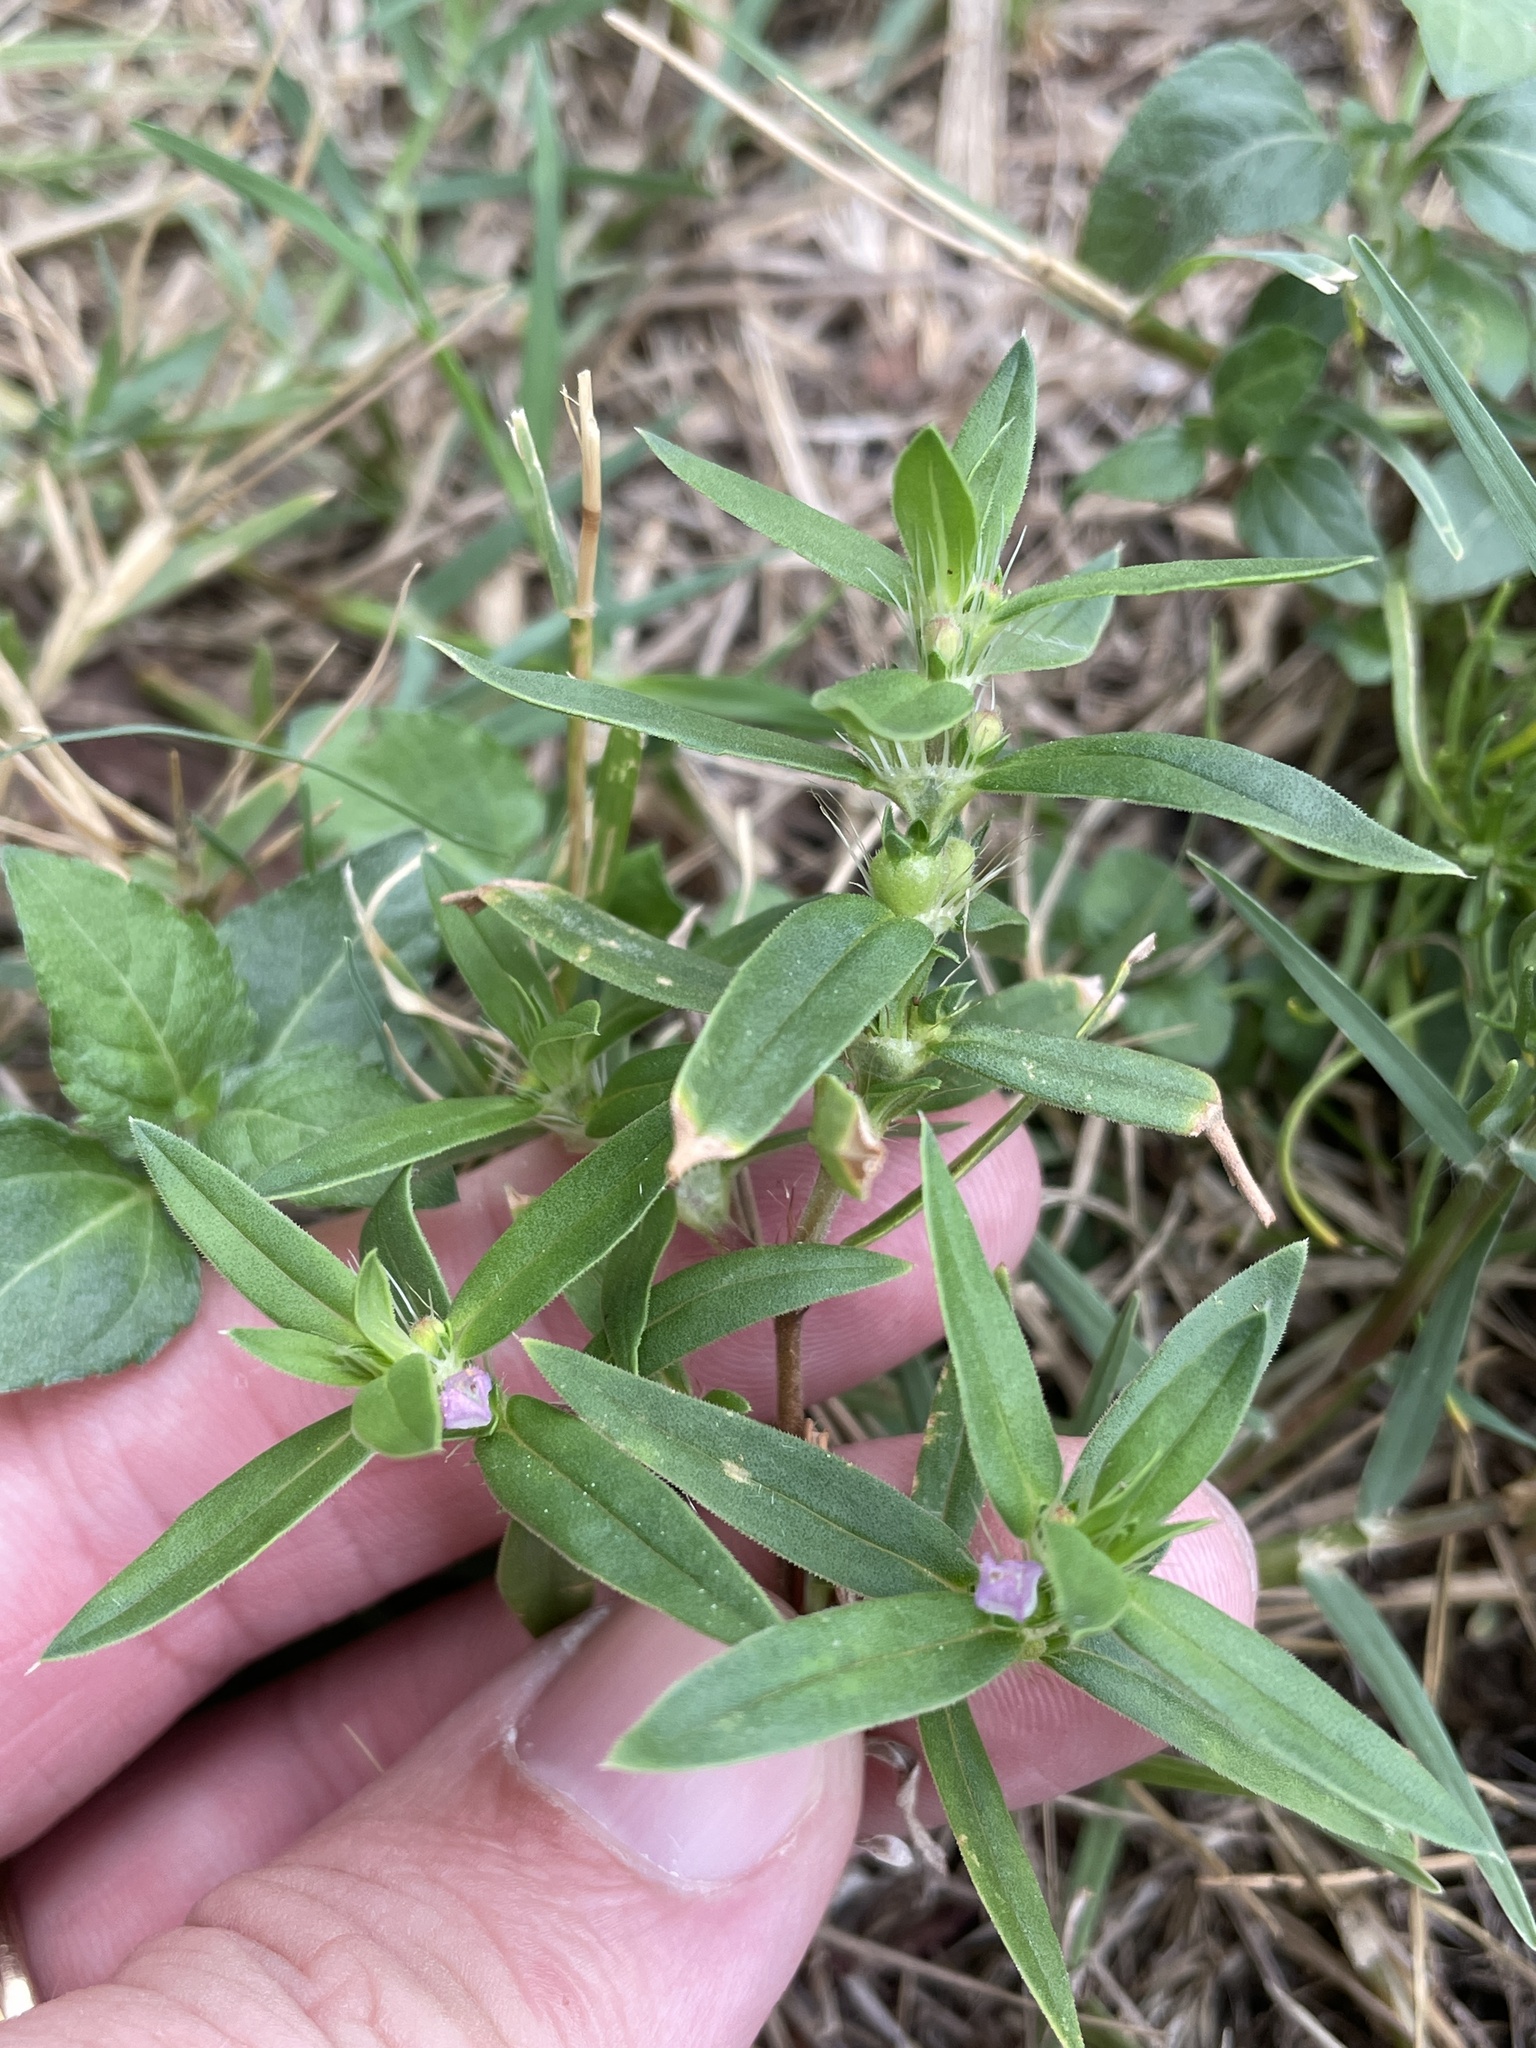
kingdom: Plantae
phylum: Tracheophyta
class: Magnoliopsida
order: Gentianales
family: Rubiaceae
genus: Hexasepalum
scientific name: Hexasepalum teres
